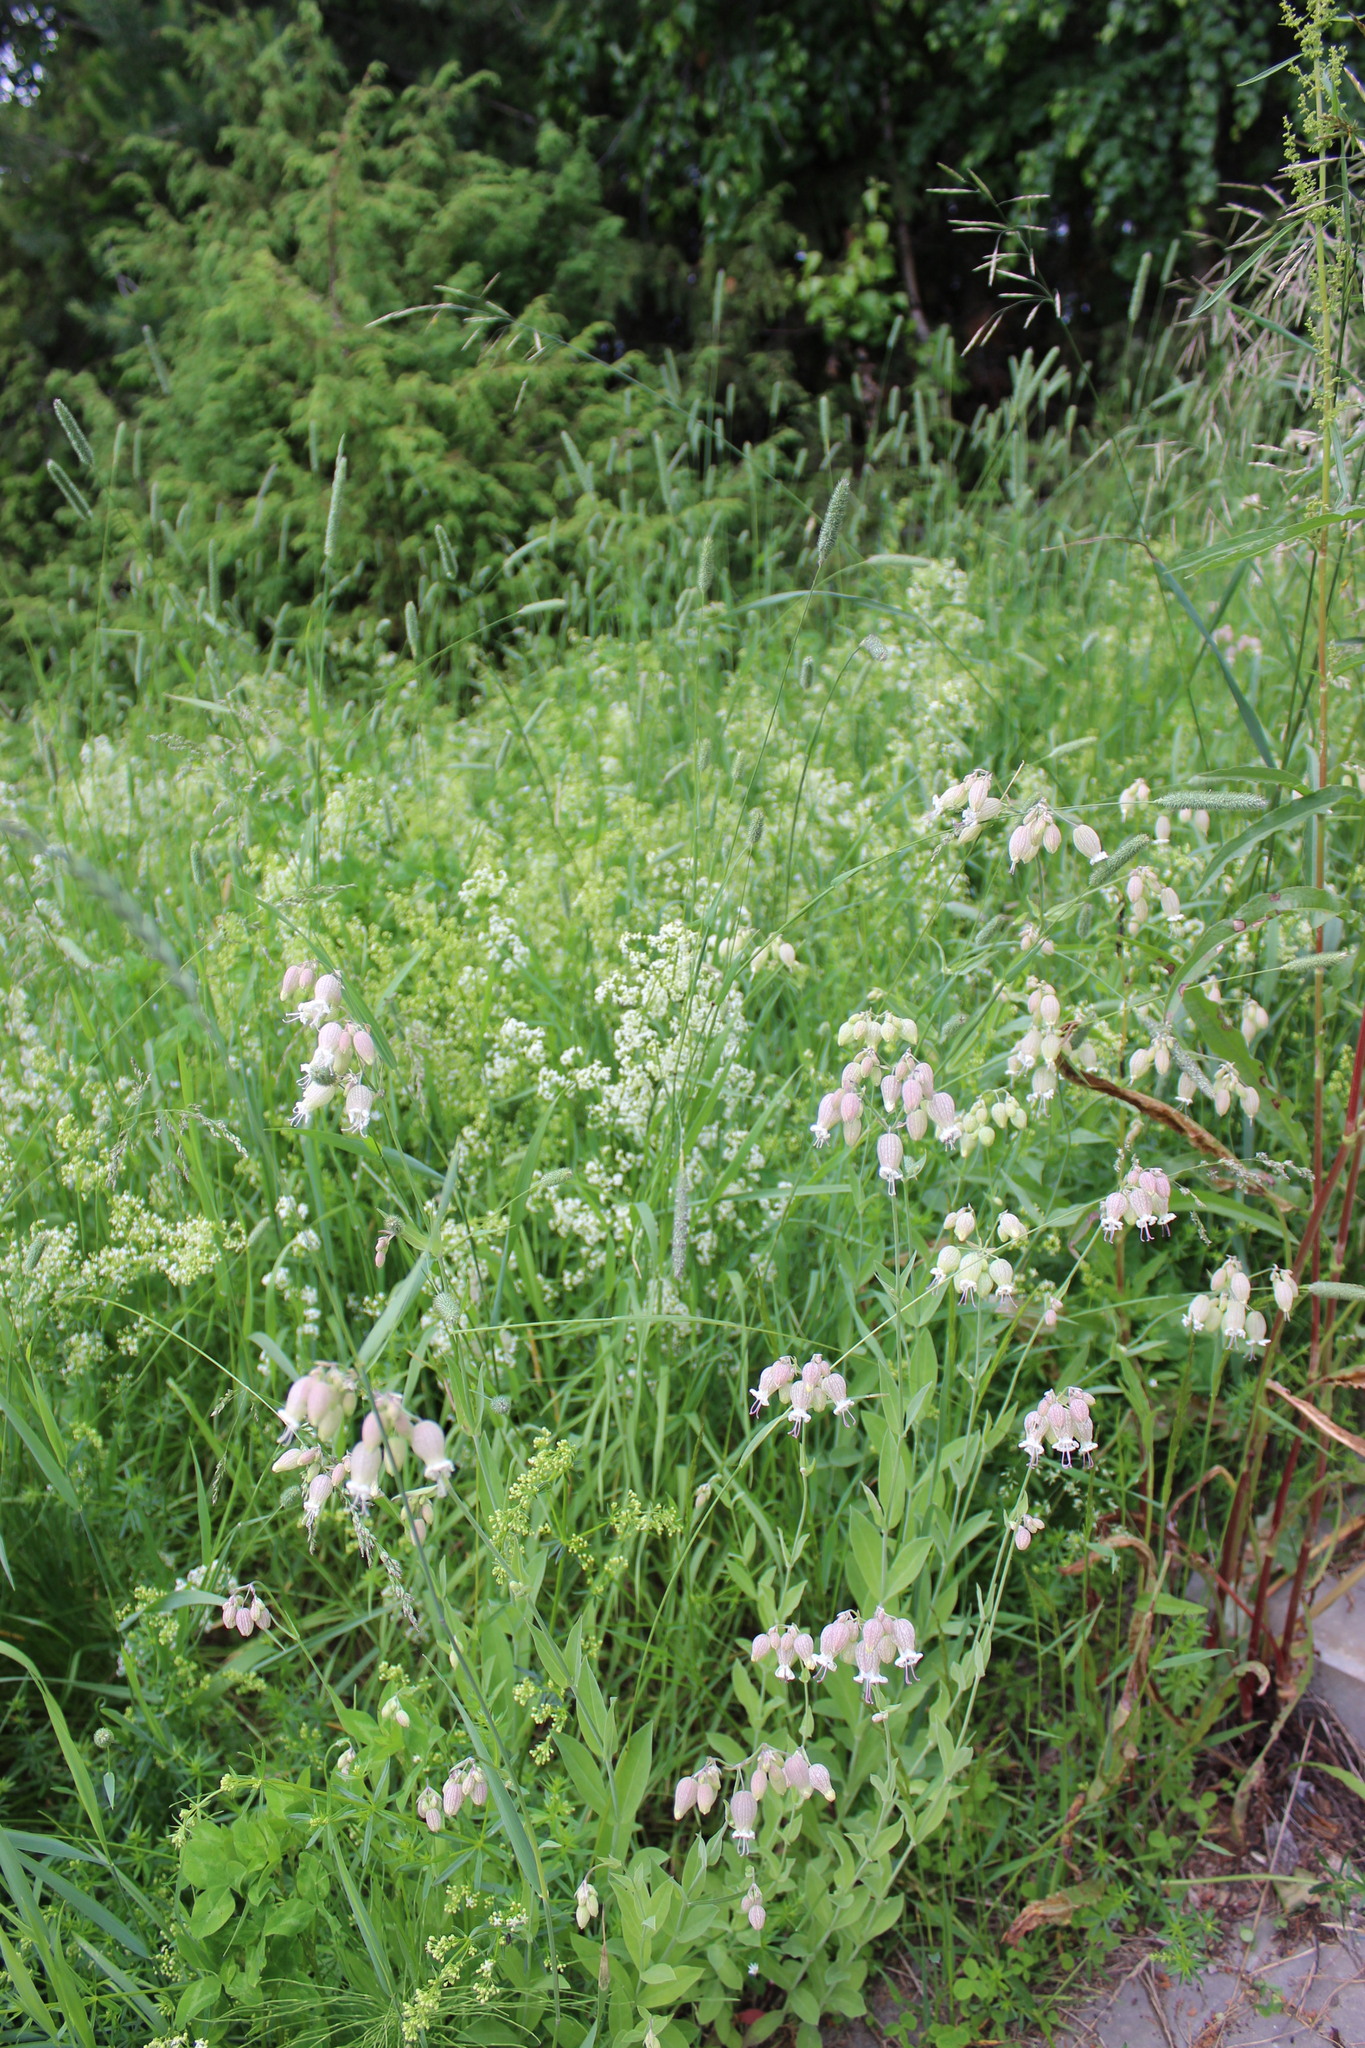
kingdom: Plantae
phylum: Tracheophyta
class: Magnoliopsida
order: Caryophyllales
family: Caryophyllaceae
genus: Silene
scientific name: Silene vulgaris
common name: Bladder campion
